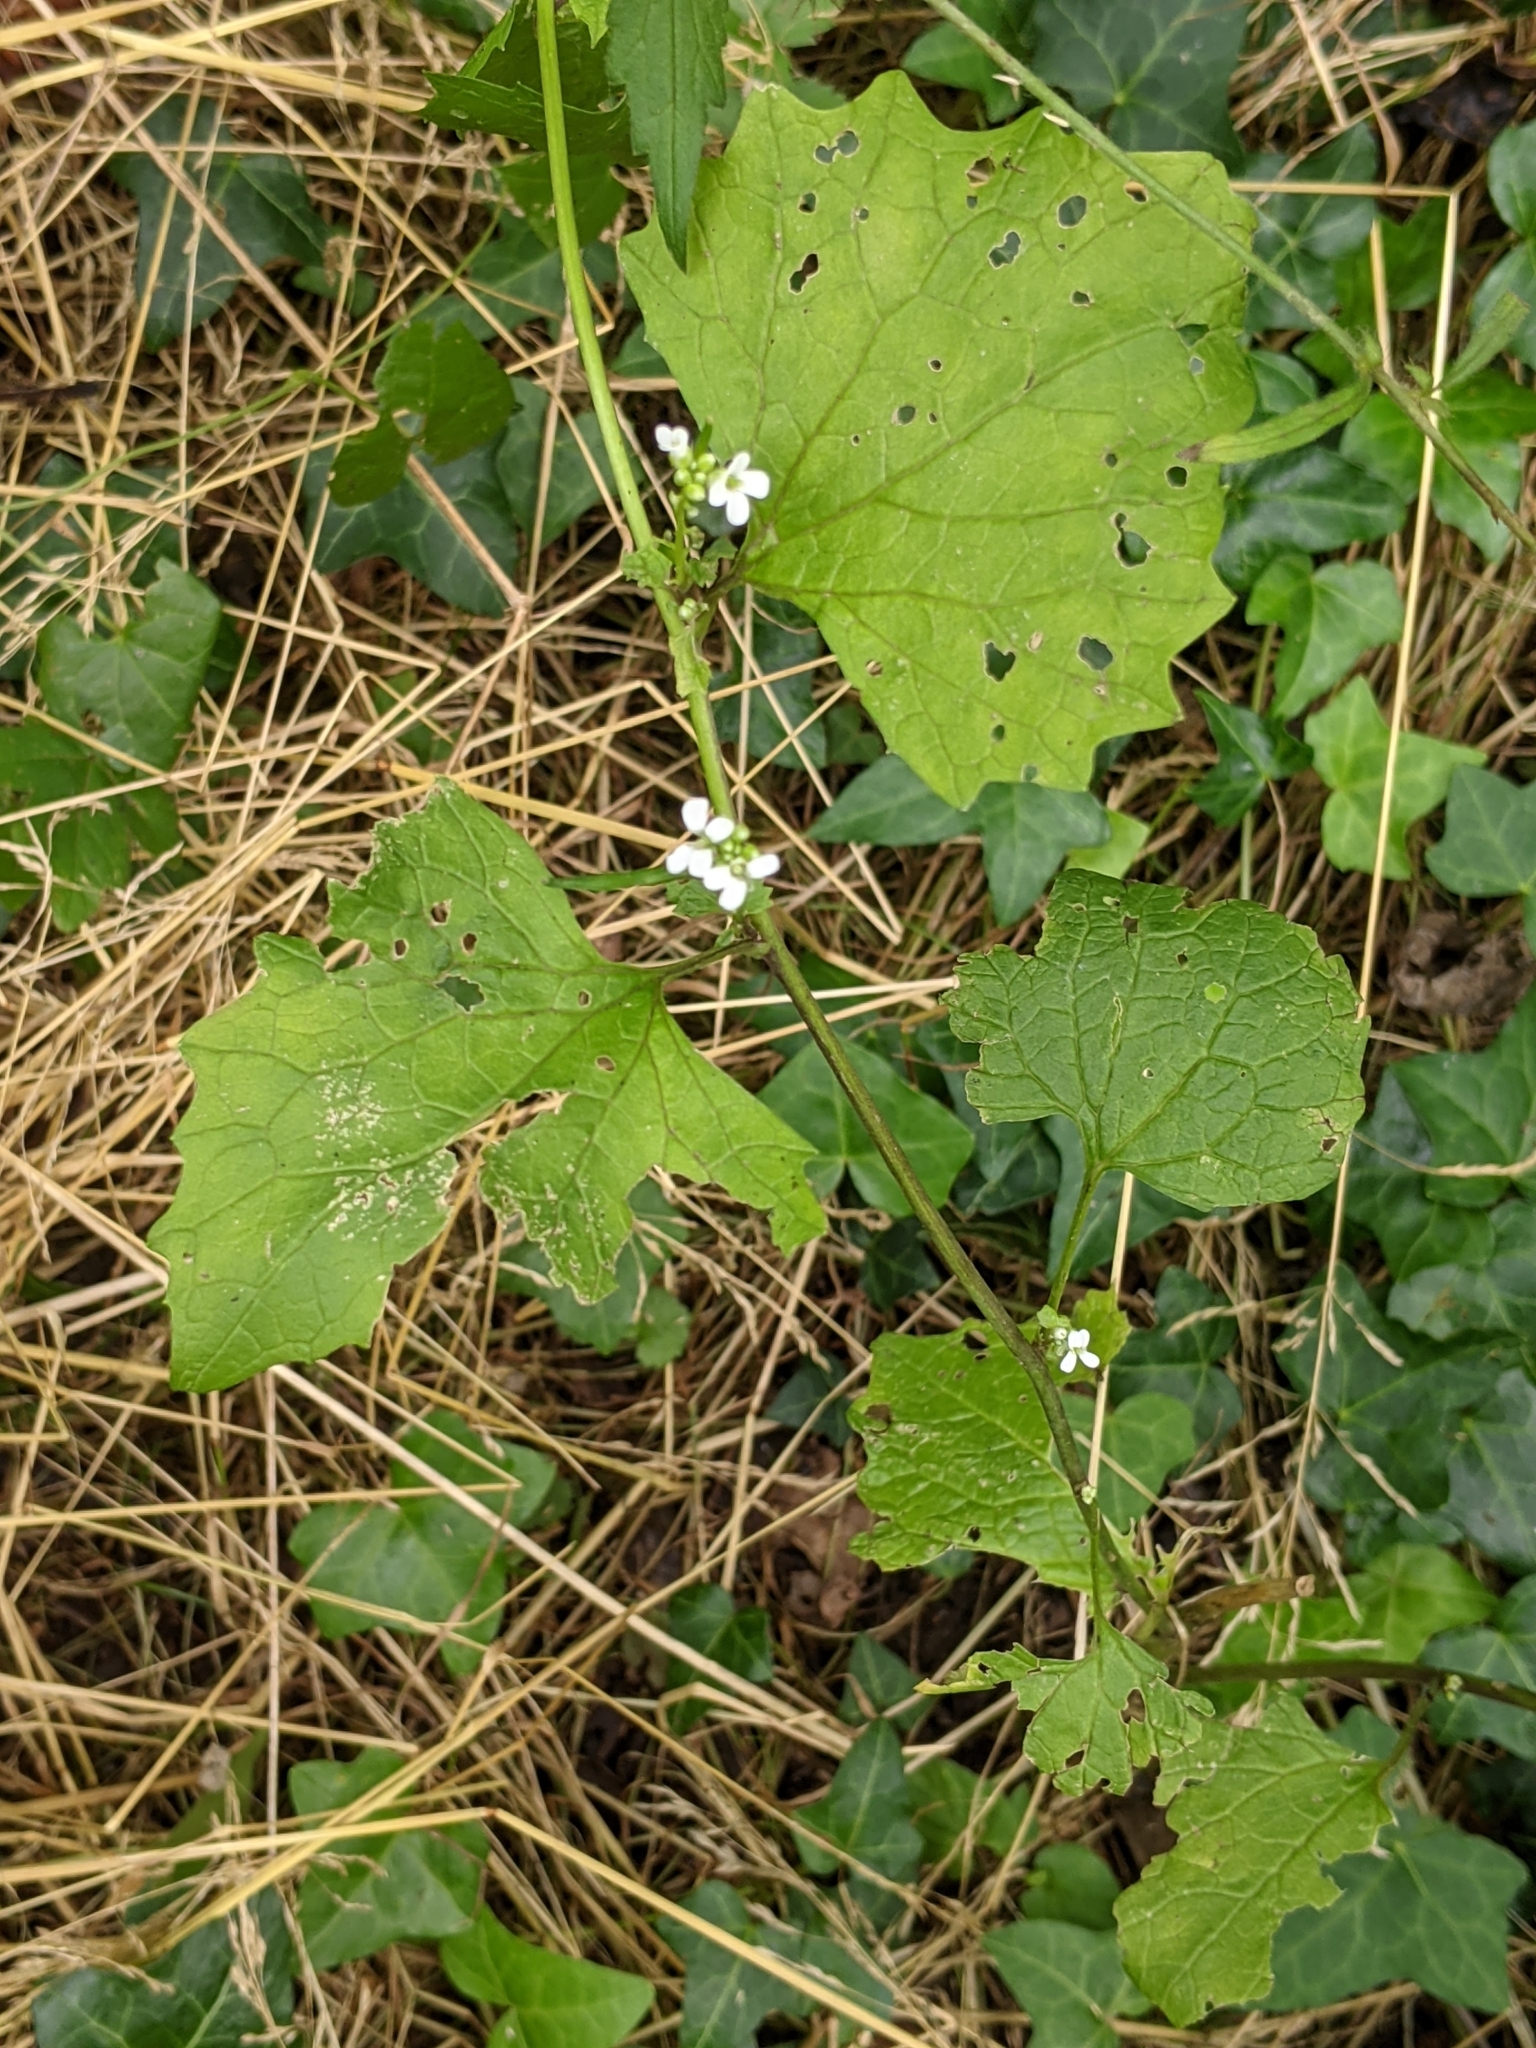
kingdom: Plantae
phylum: Tracheophyta
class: Magnoliopsida
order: Brassicales
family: Brassicaceae
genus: Alliaria
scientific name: Alliaria petiolata
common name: Garlic mustard
